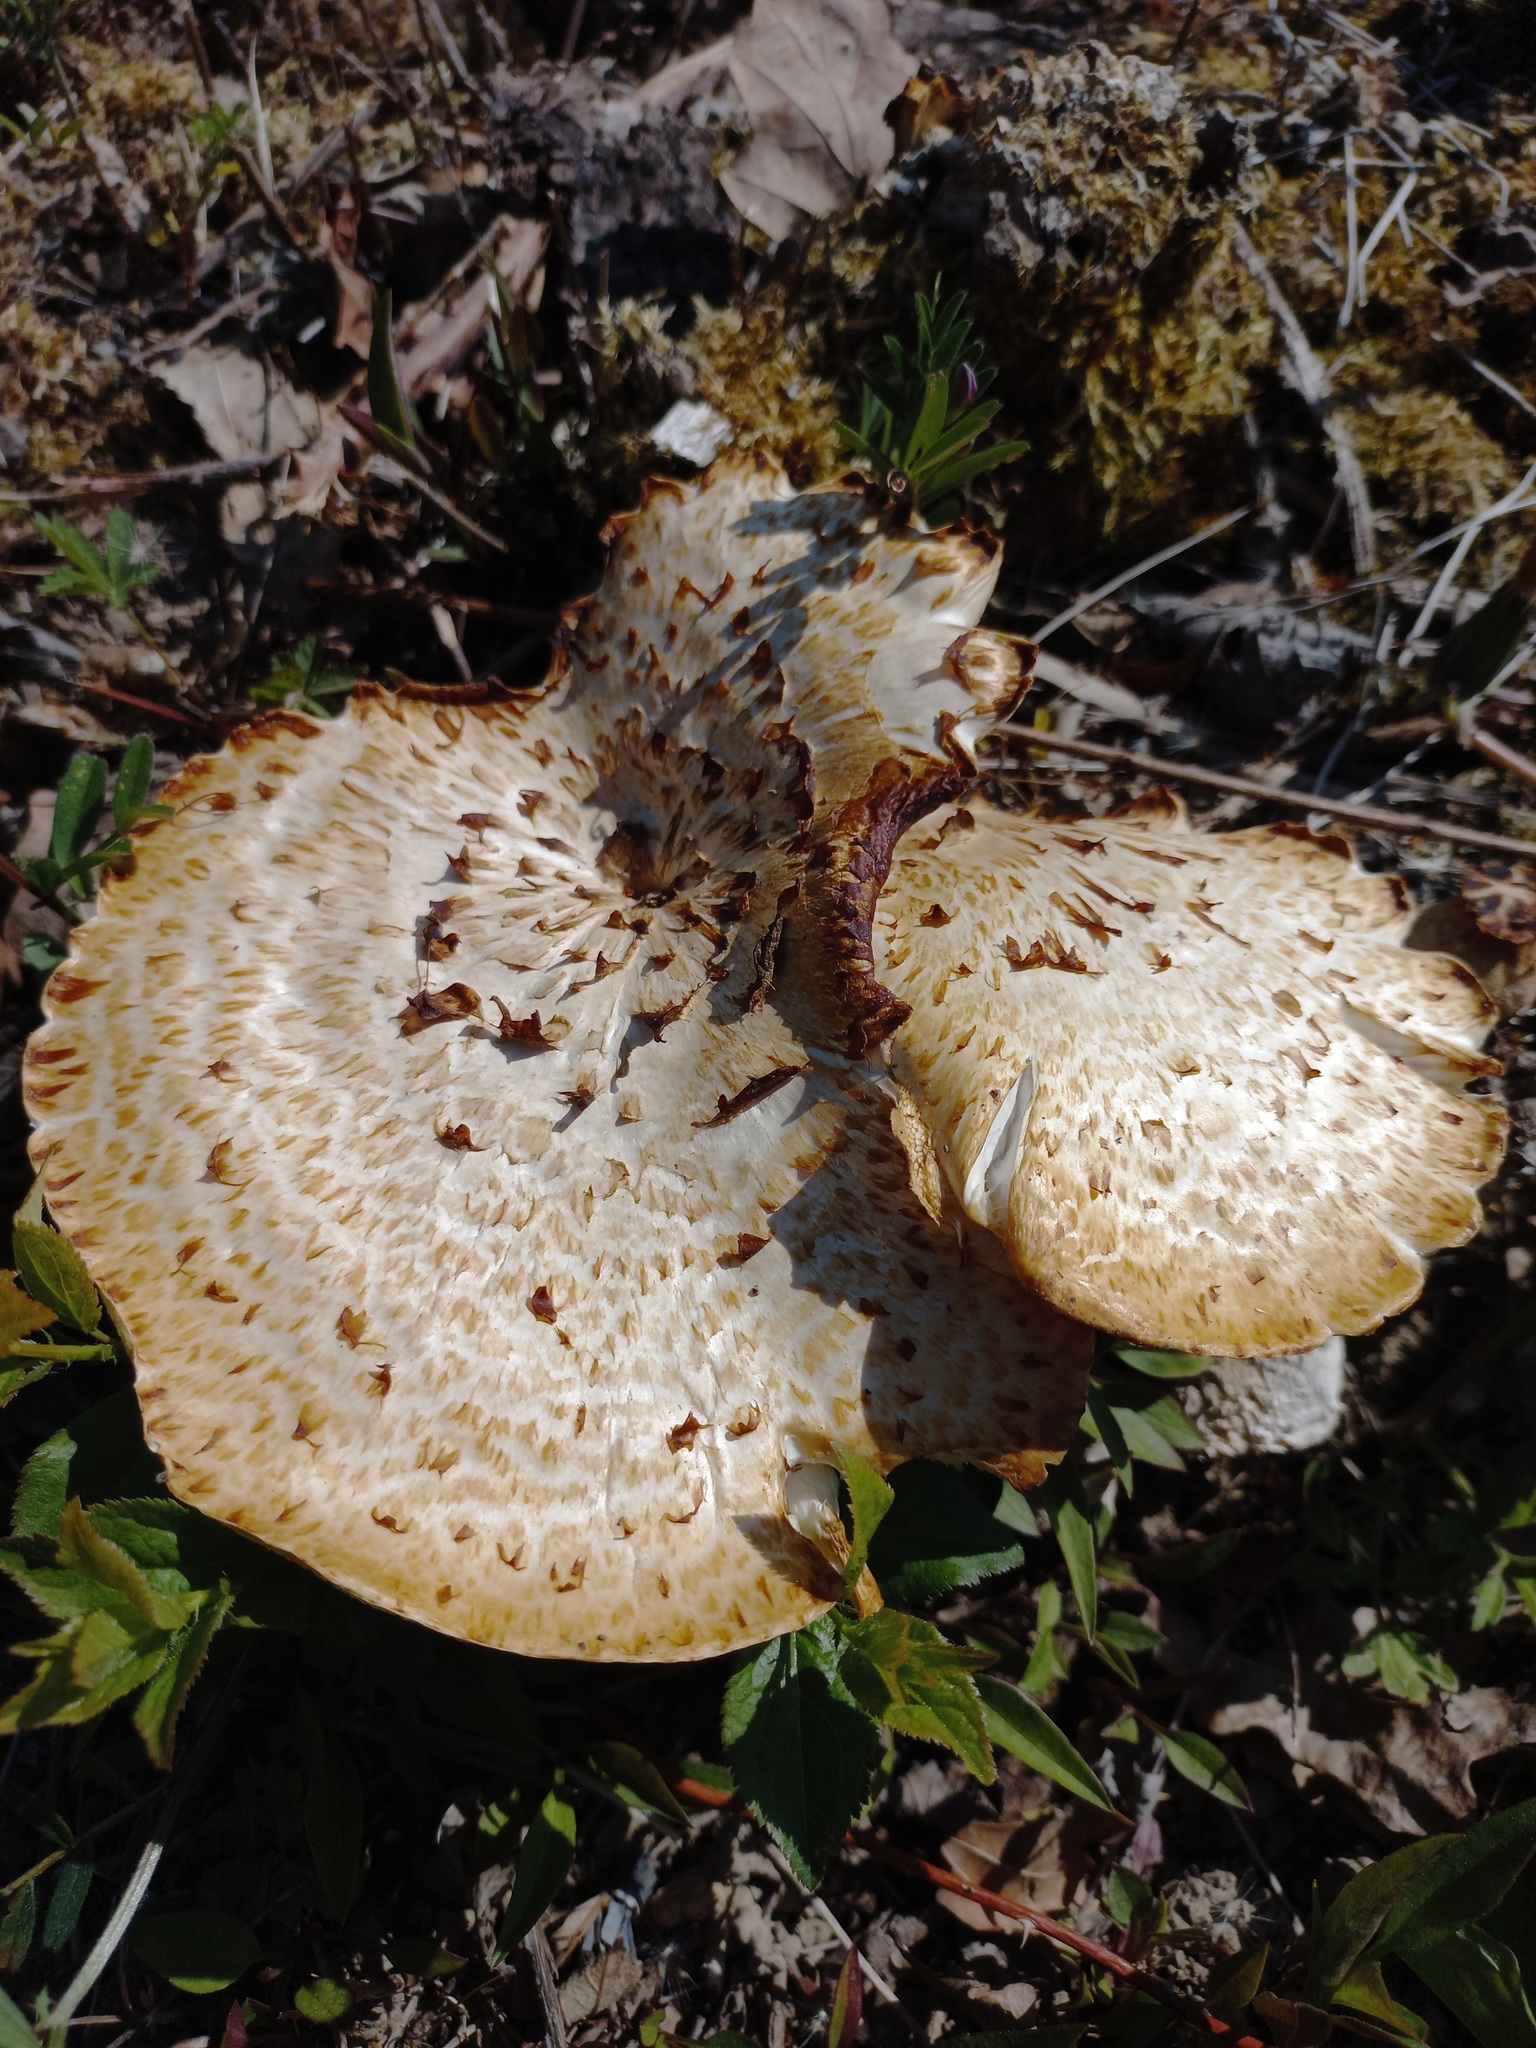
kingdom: Fungi
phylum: Basidiomycota
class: Agaricomycetes
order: Polyporales
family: Polyporaceae
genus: Cerioporus
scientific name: Cerioporus squamosus
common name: Dryad's saddle
